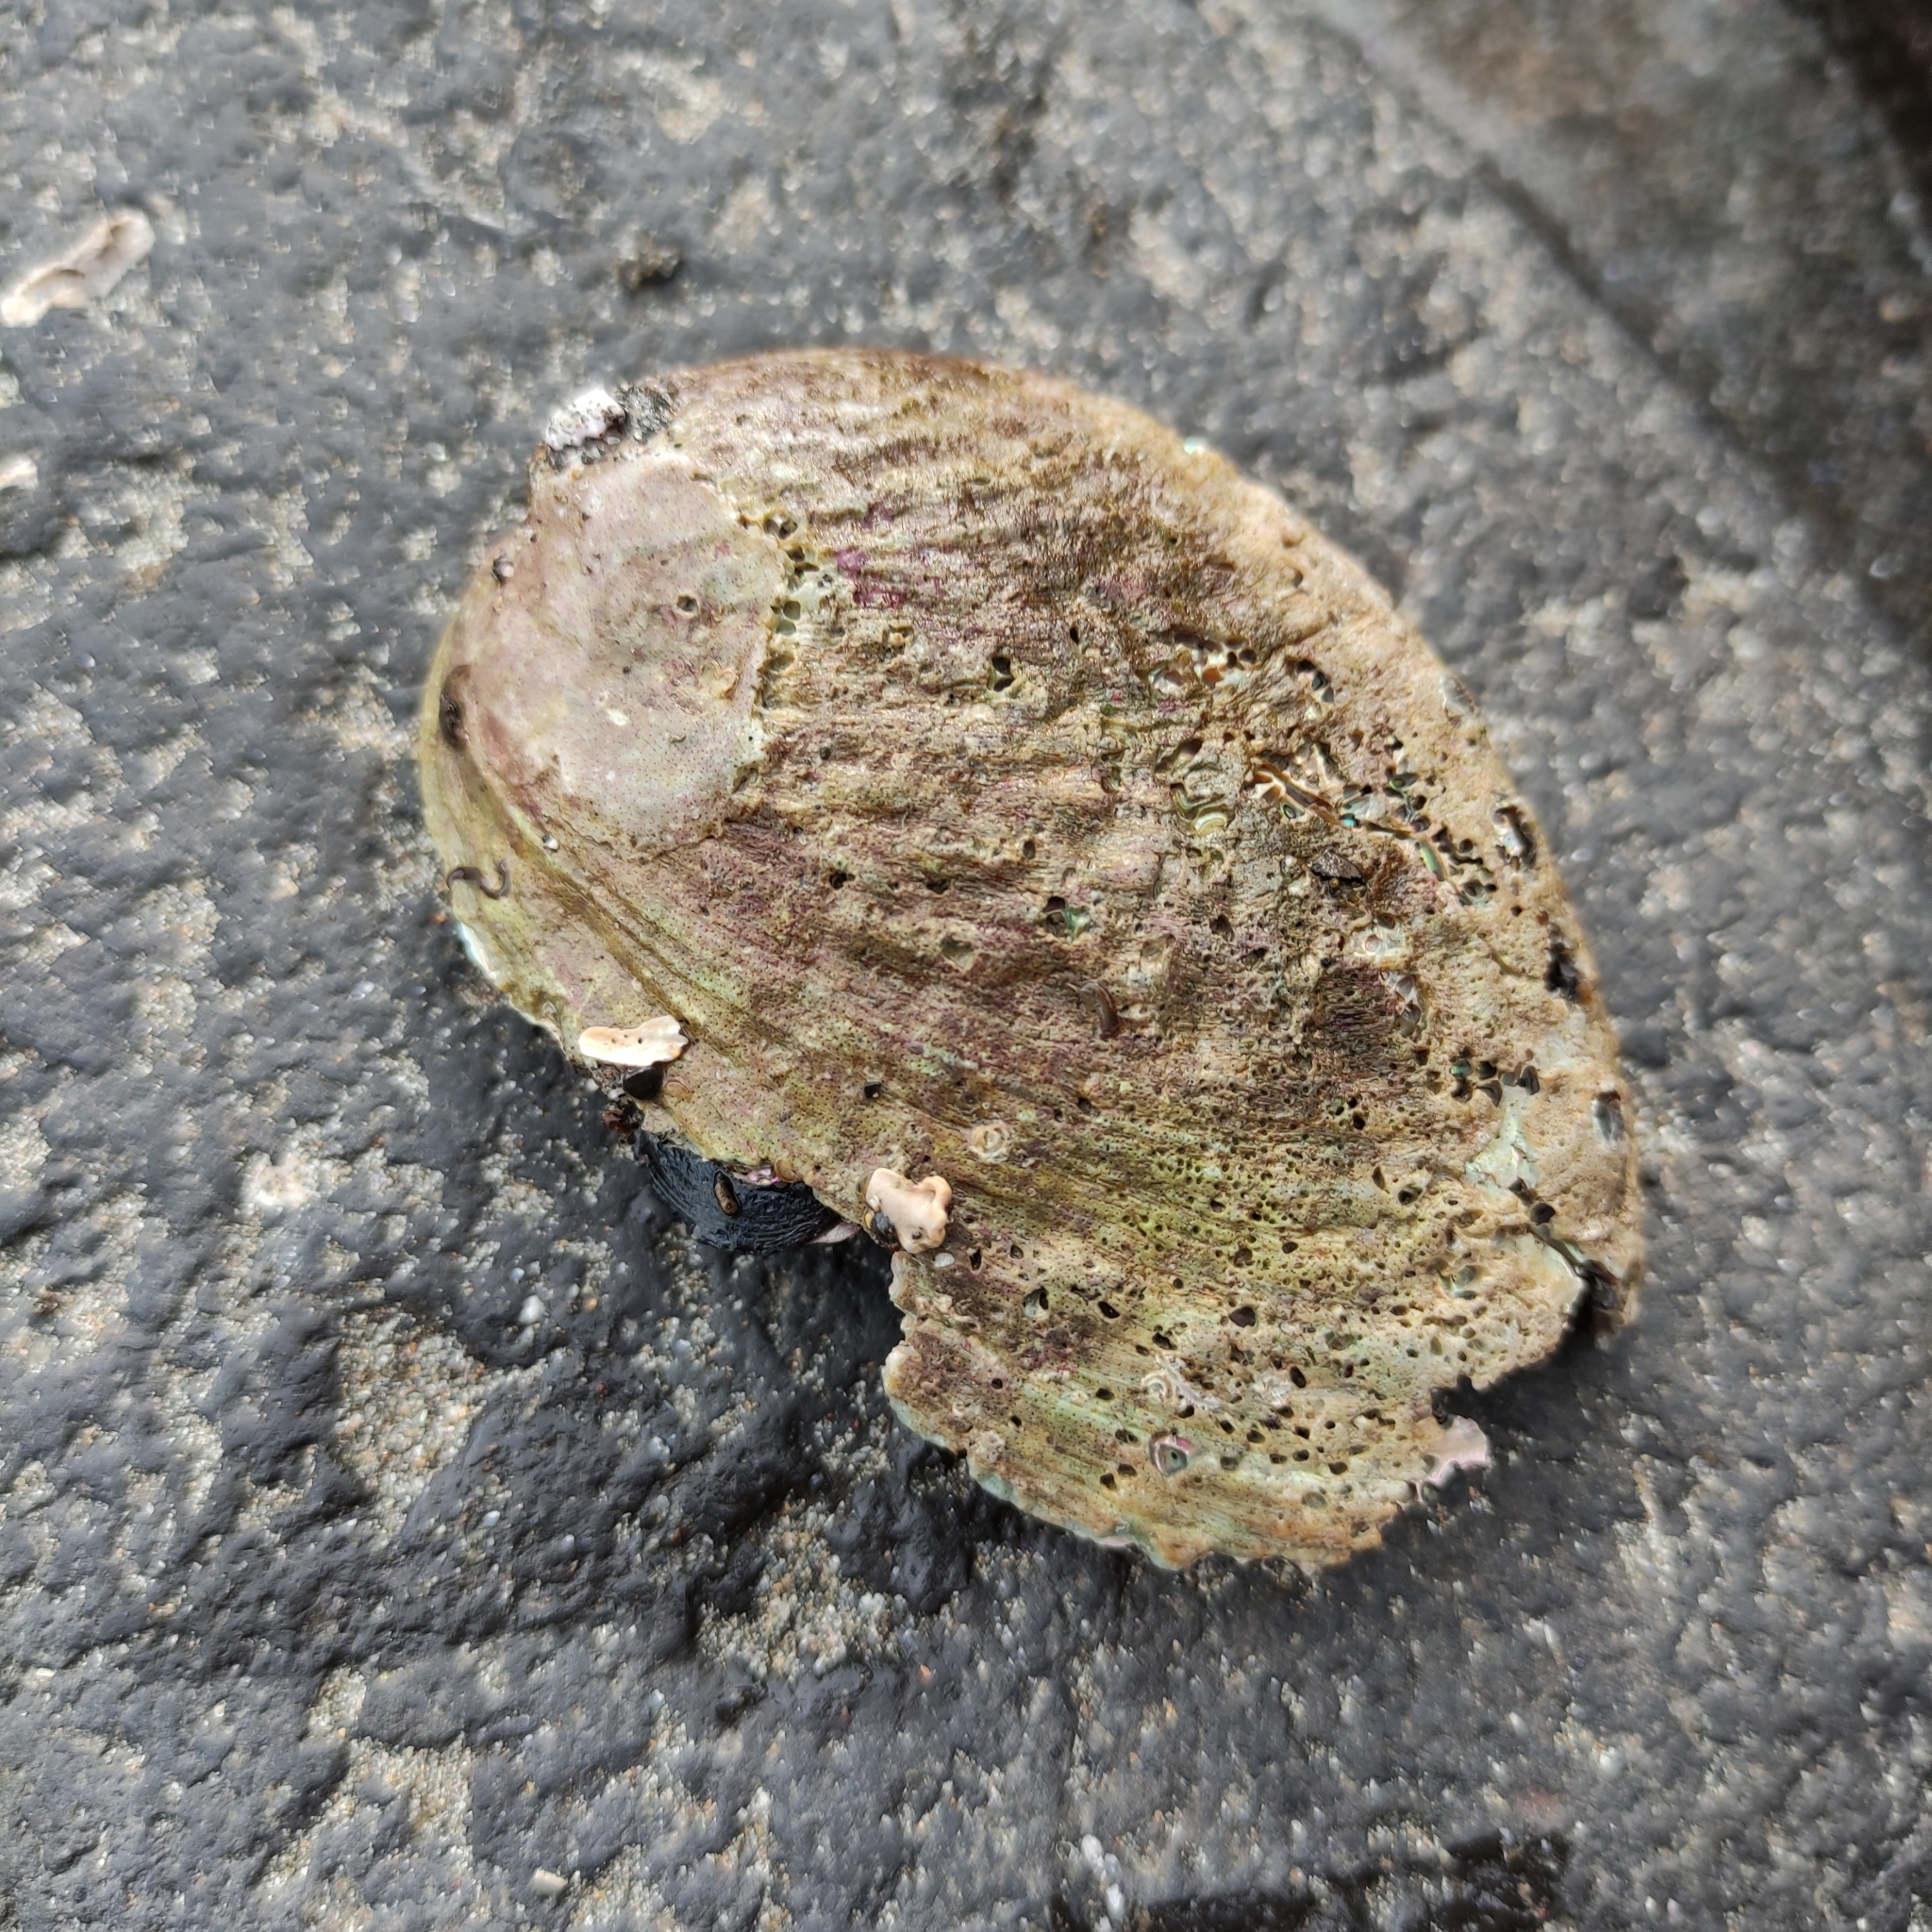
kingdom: Animalia
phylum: Mollusca
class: Gastropoda
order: Lepetellida
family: Haliotidae
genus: Haliotis
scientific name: Haliotis iris
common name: Abalone
